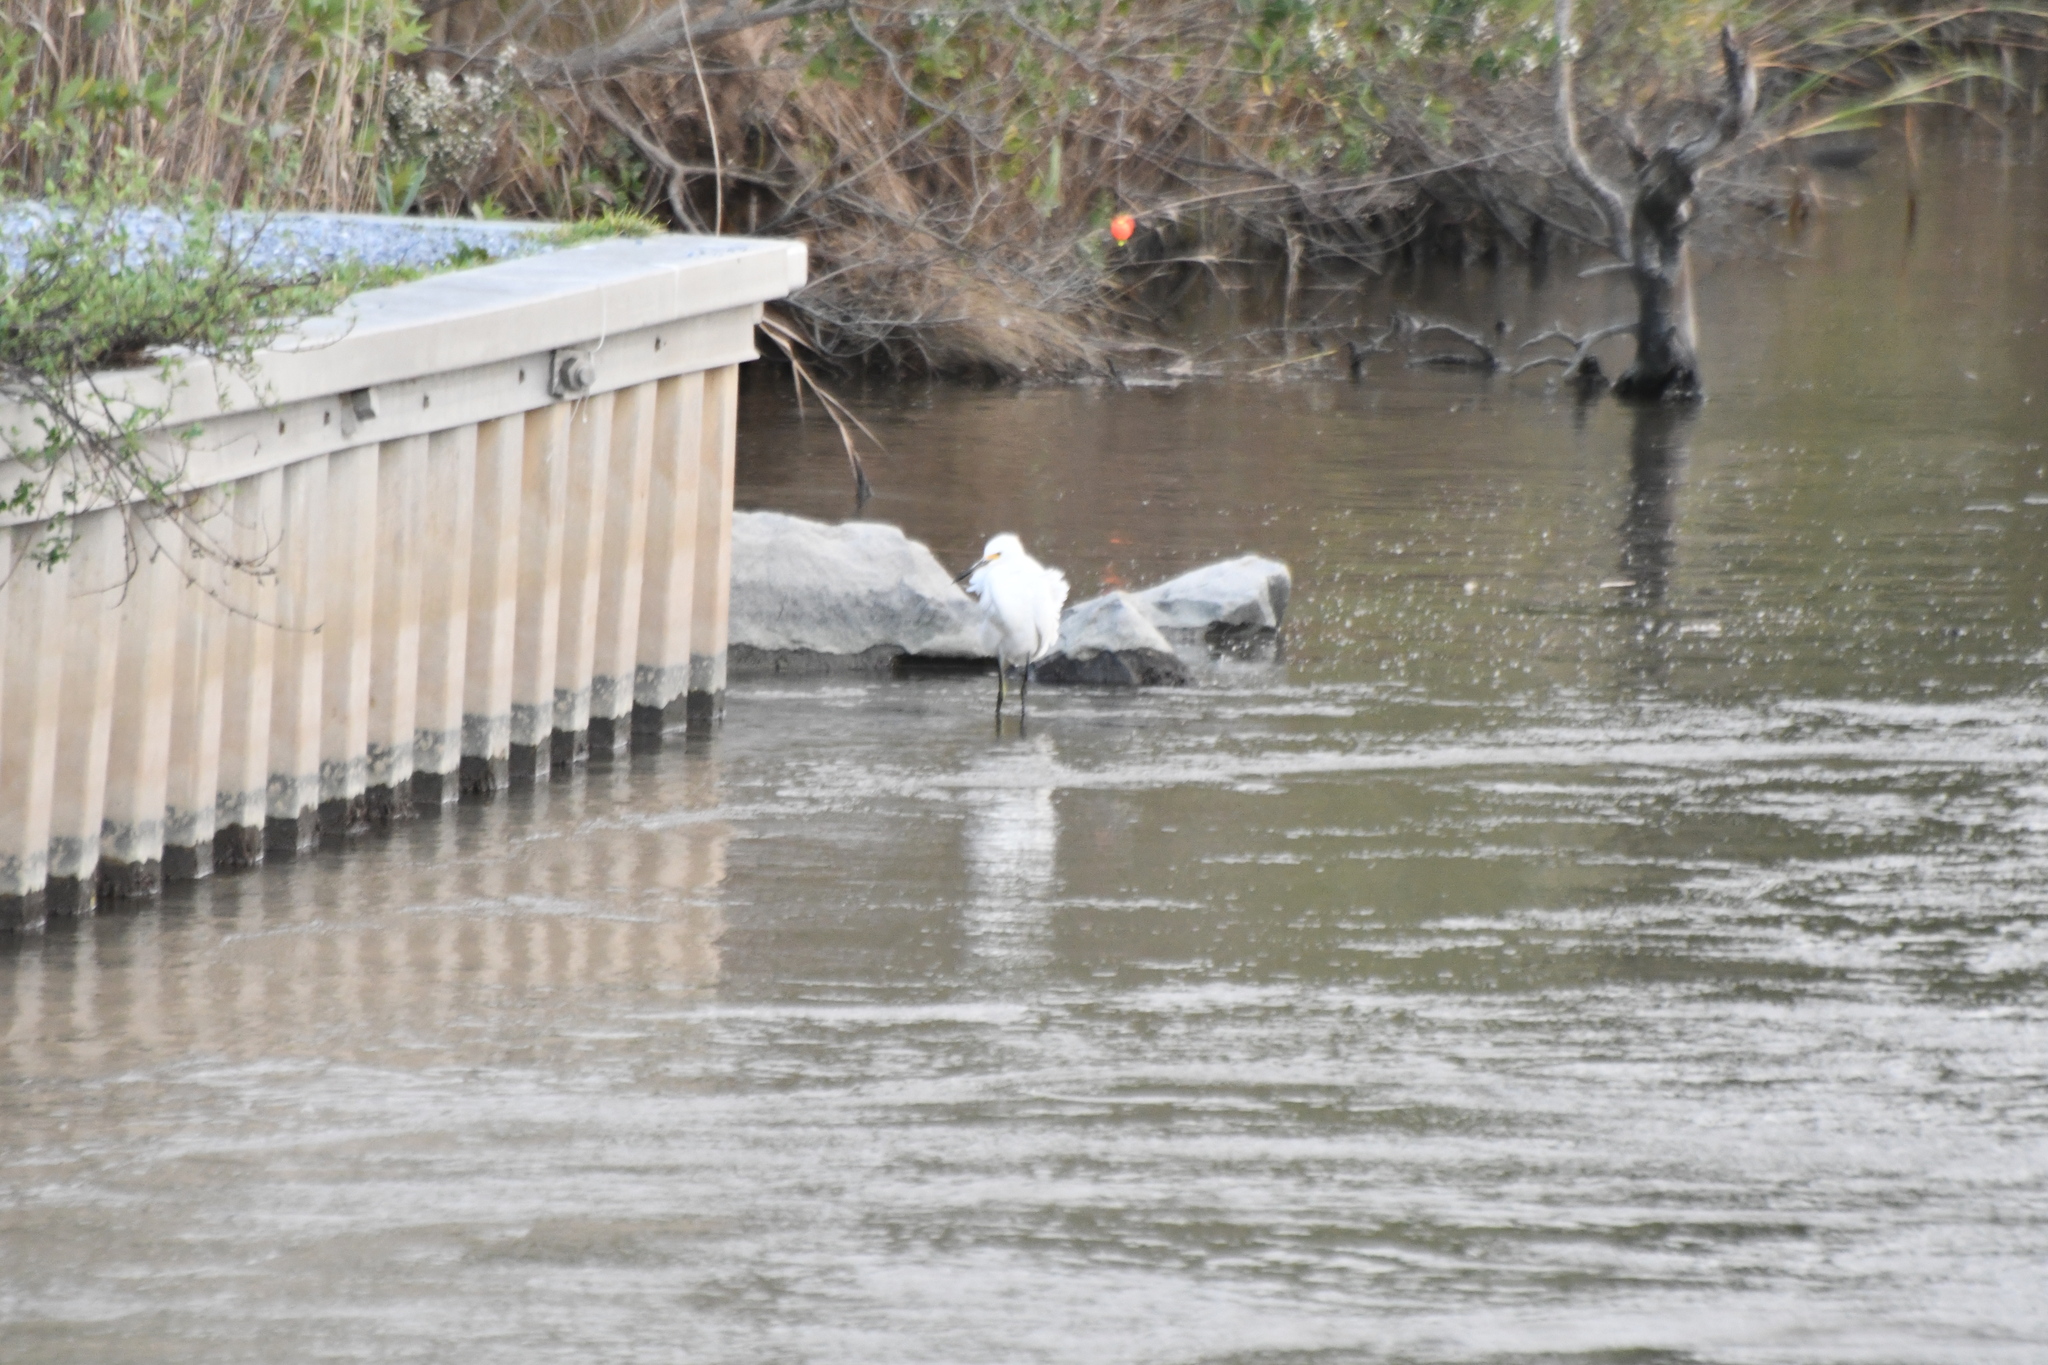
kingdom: Animalia
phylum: Chordata
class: Aves
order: Pelecaniformes
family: Ardeidae
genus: Egretta
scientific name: Egretta thula
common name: Snowy egret
